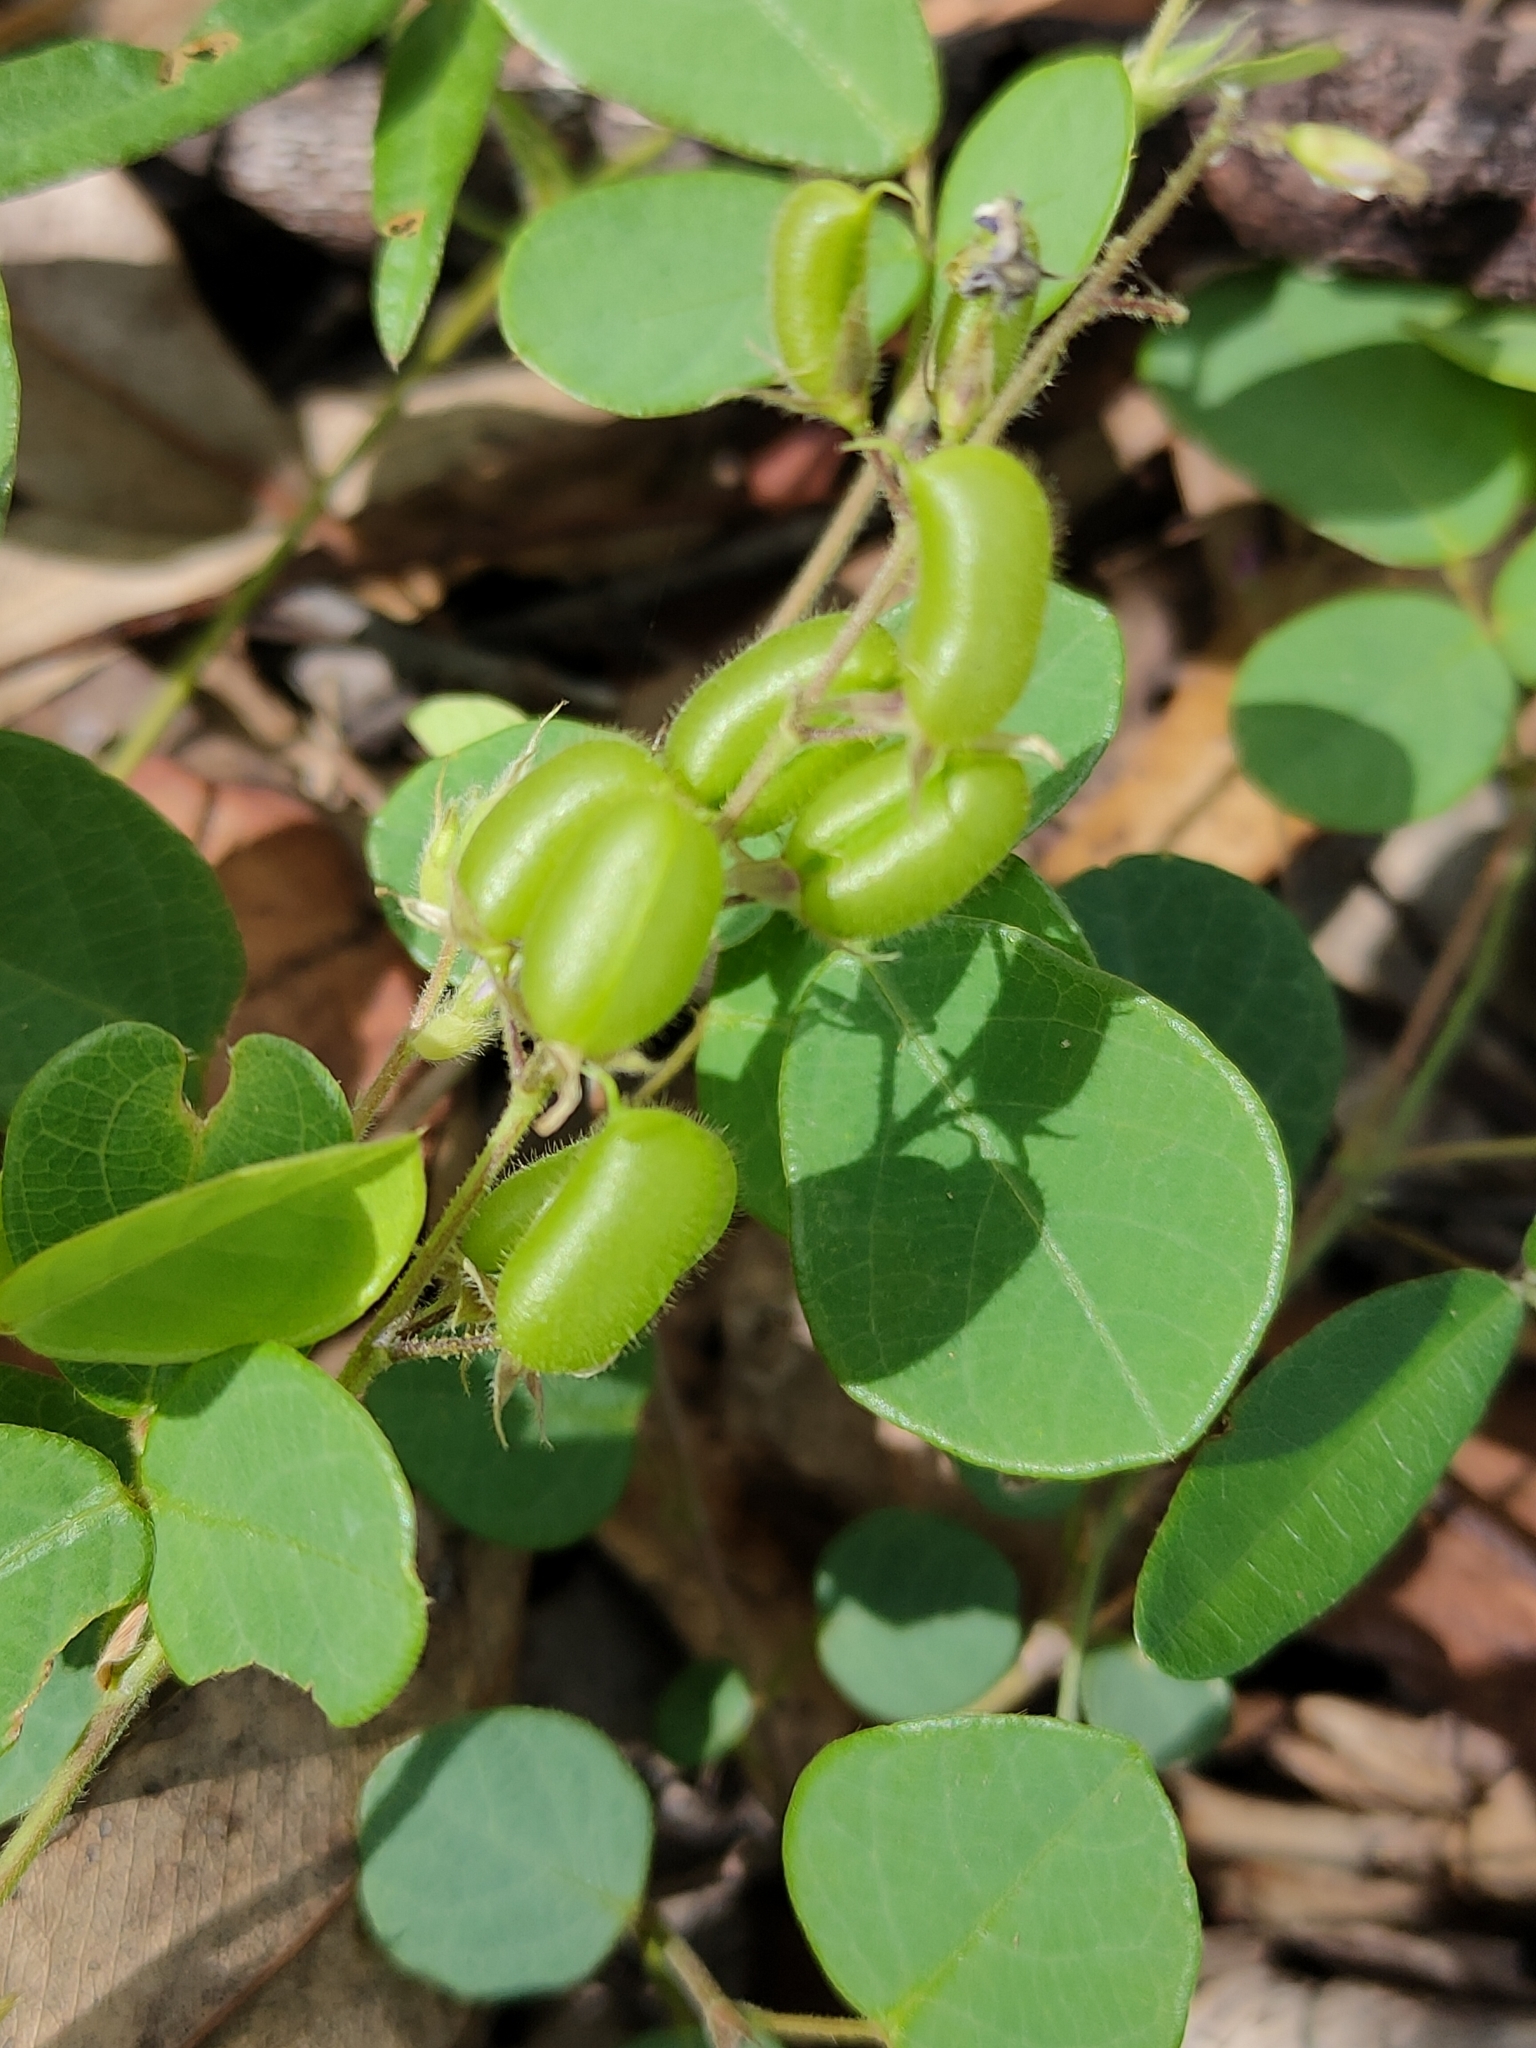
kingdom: Plantae
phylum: Tracheophyta
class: Magnoliopsida
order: Fabales
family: Fabaceae
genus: Pycnospora
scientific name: Pycnospora lutescens
